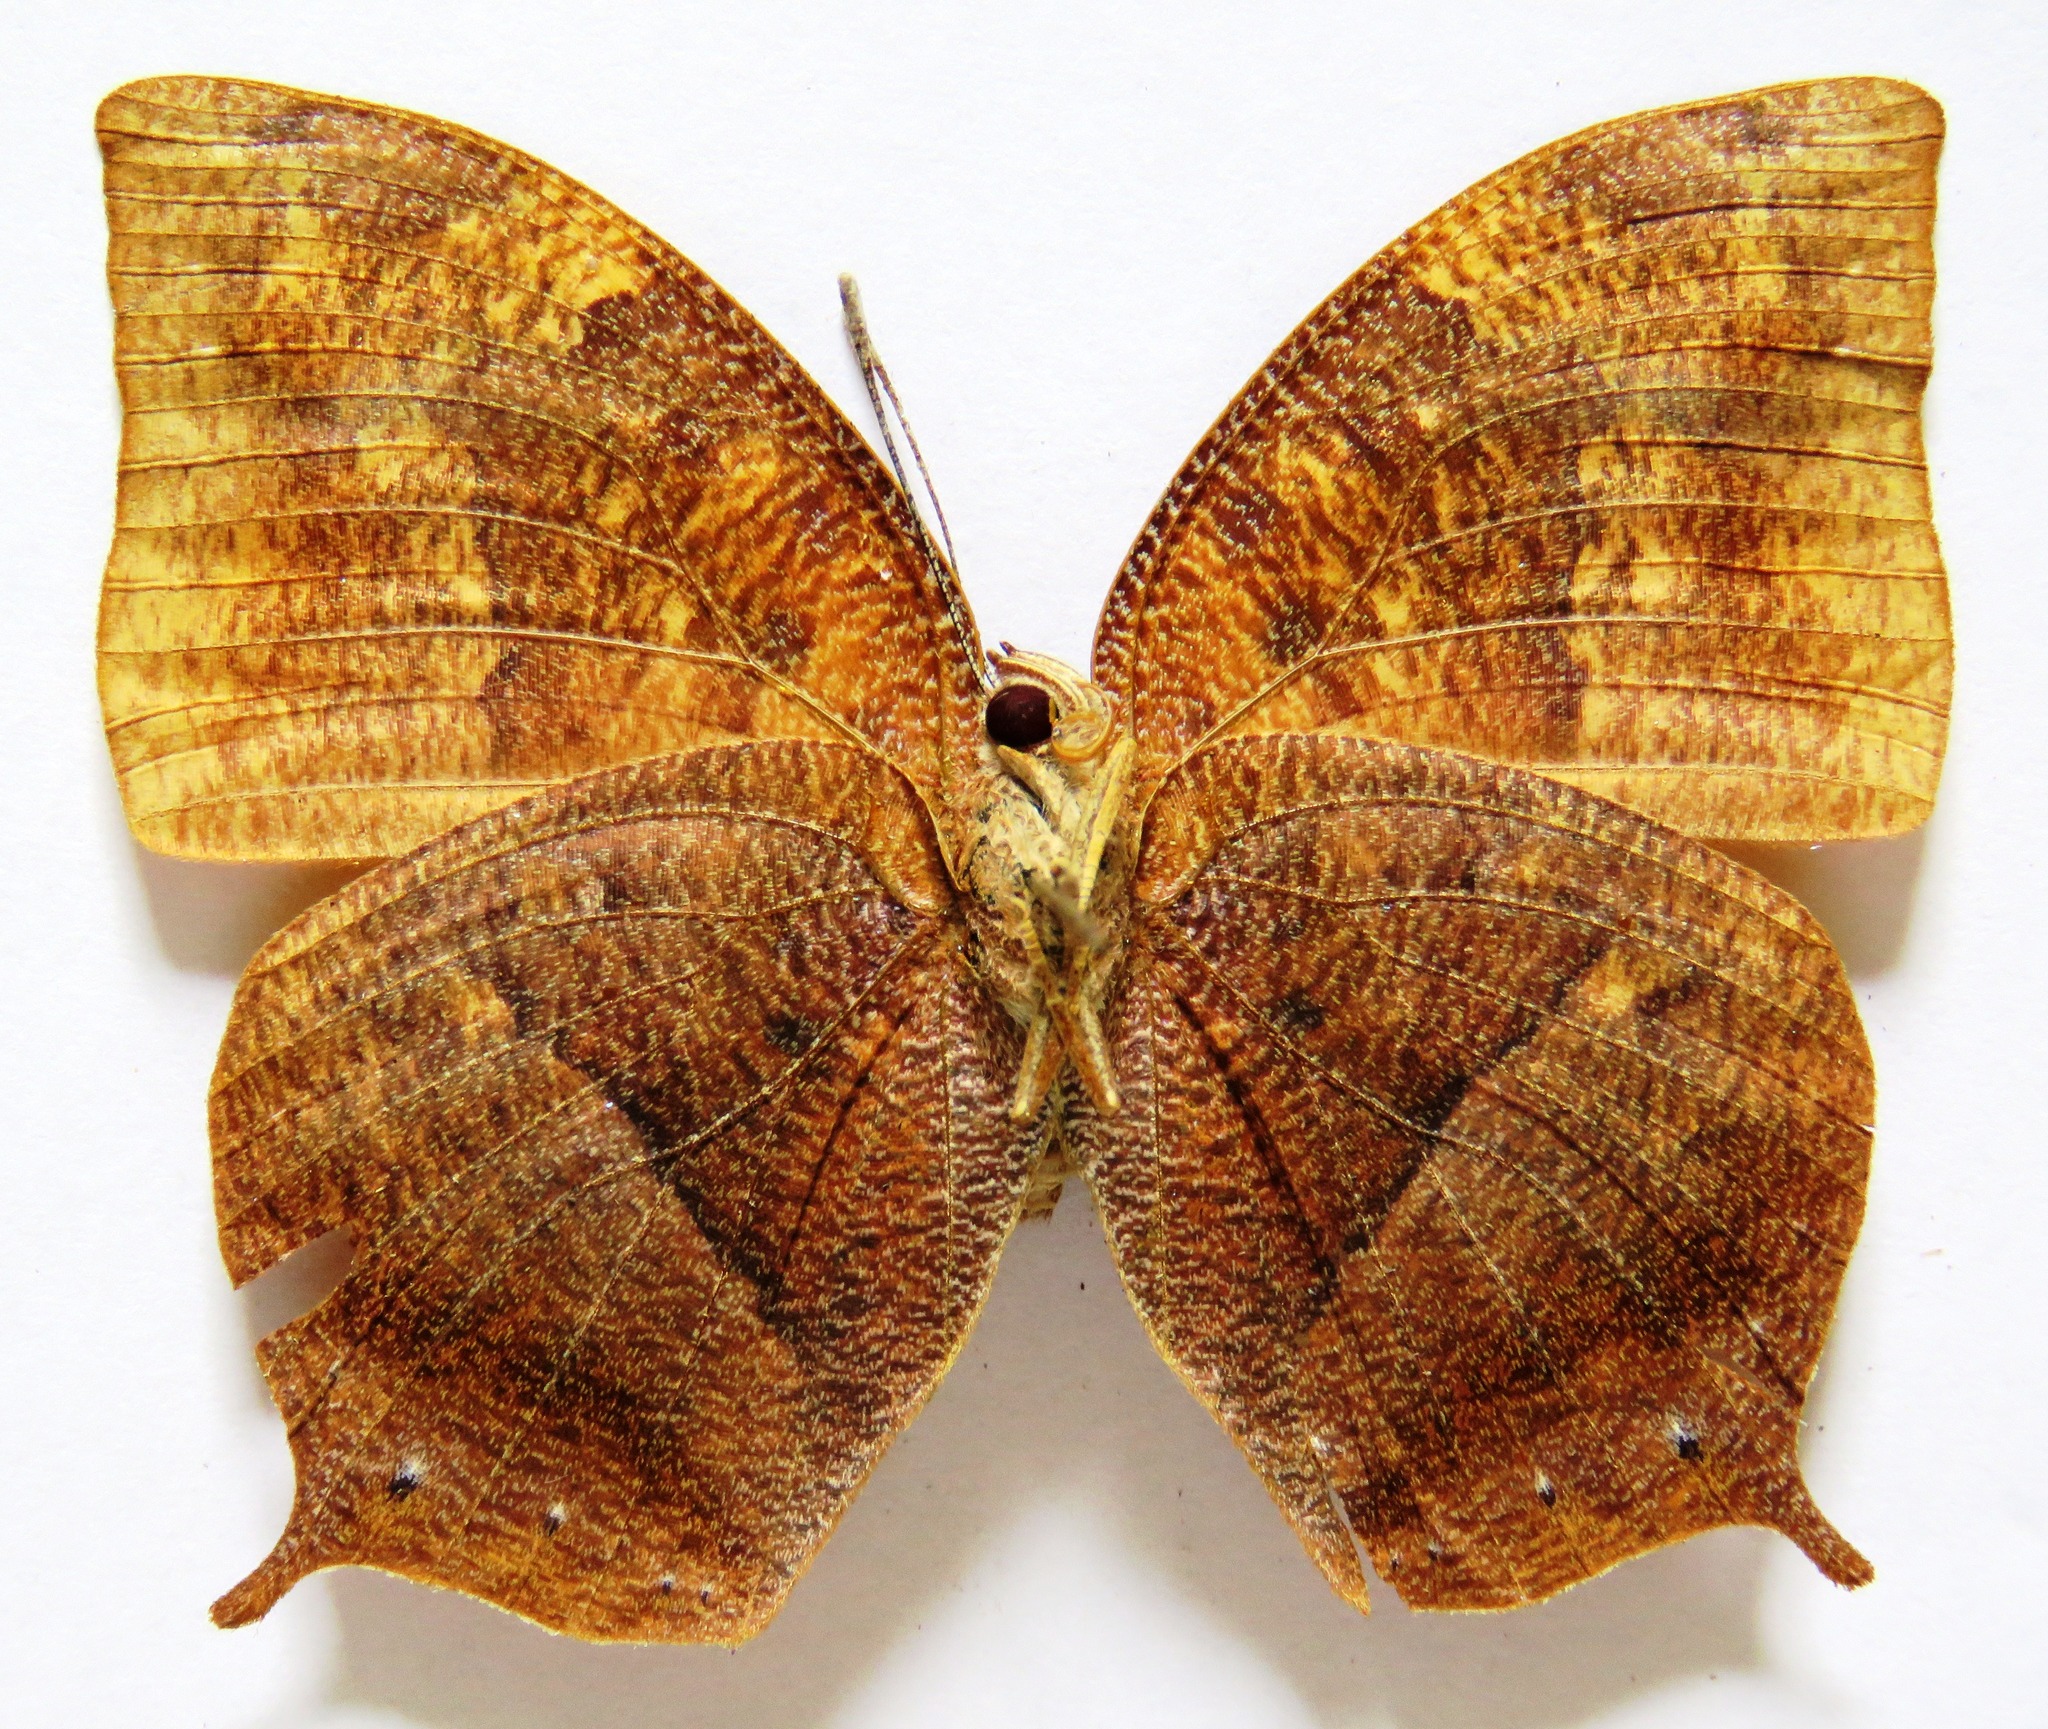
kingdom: Animalia
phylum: Arthropoda
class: Insecta
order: Lepidoptera
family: Nymphalidae
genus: Fountainea
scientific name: Fountainea
